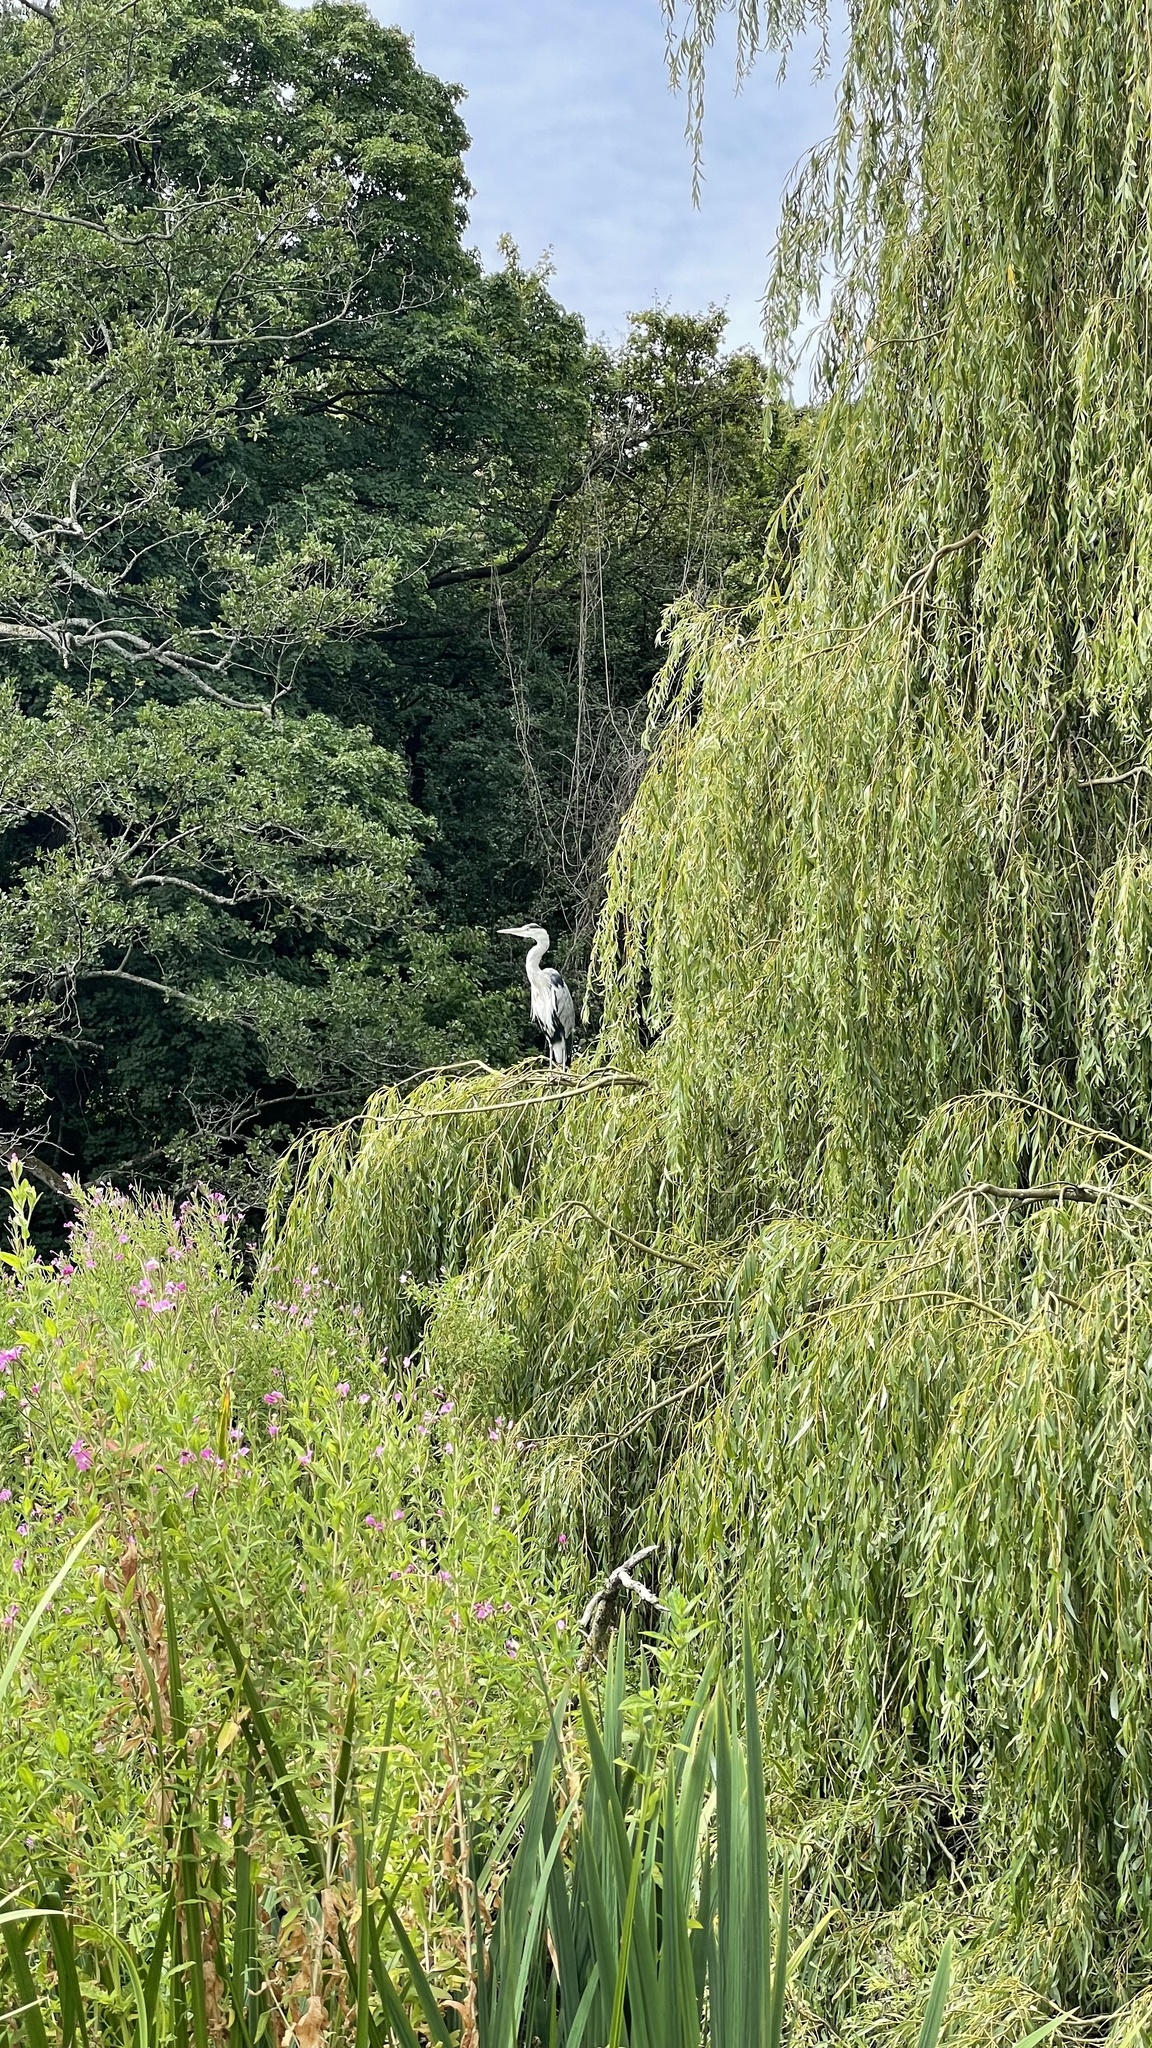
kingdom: Animalia
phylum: Chordata
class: Aves
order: Pelecaniformes
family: Ardeidae
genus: Ardea
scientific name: Ardea cinerea
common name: Grey heron
